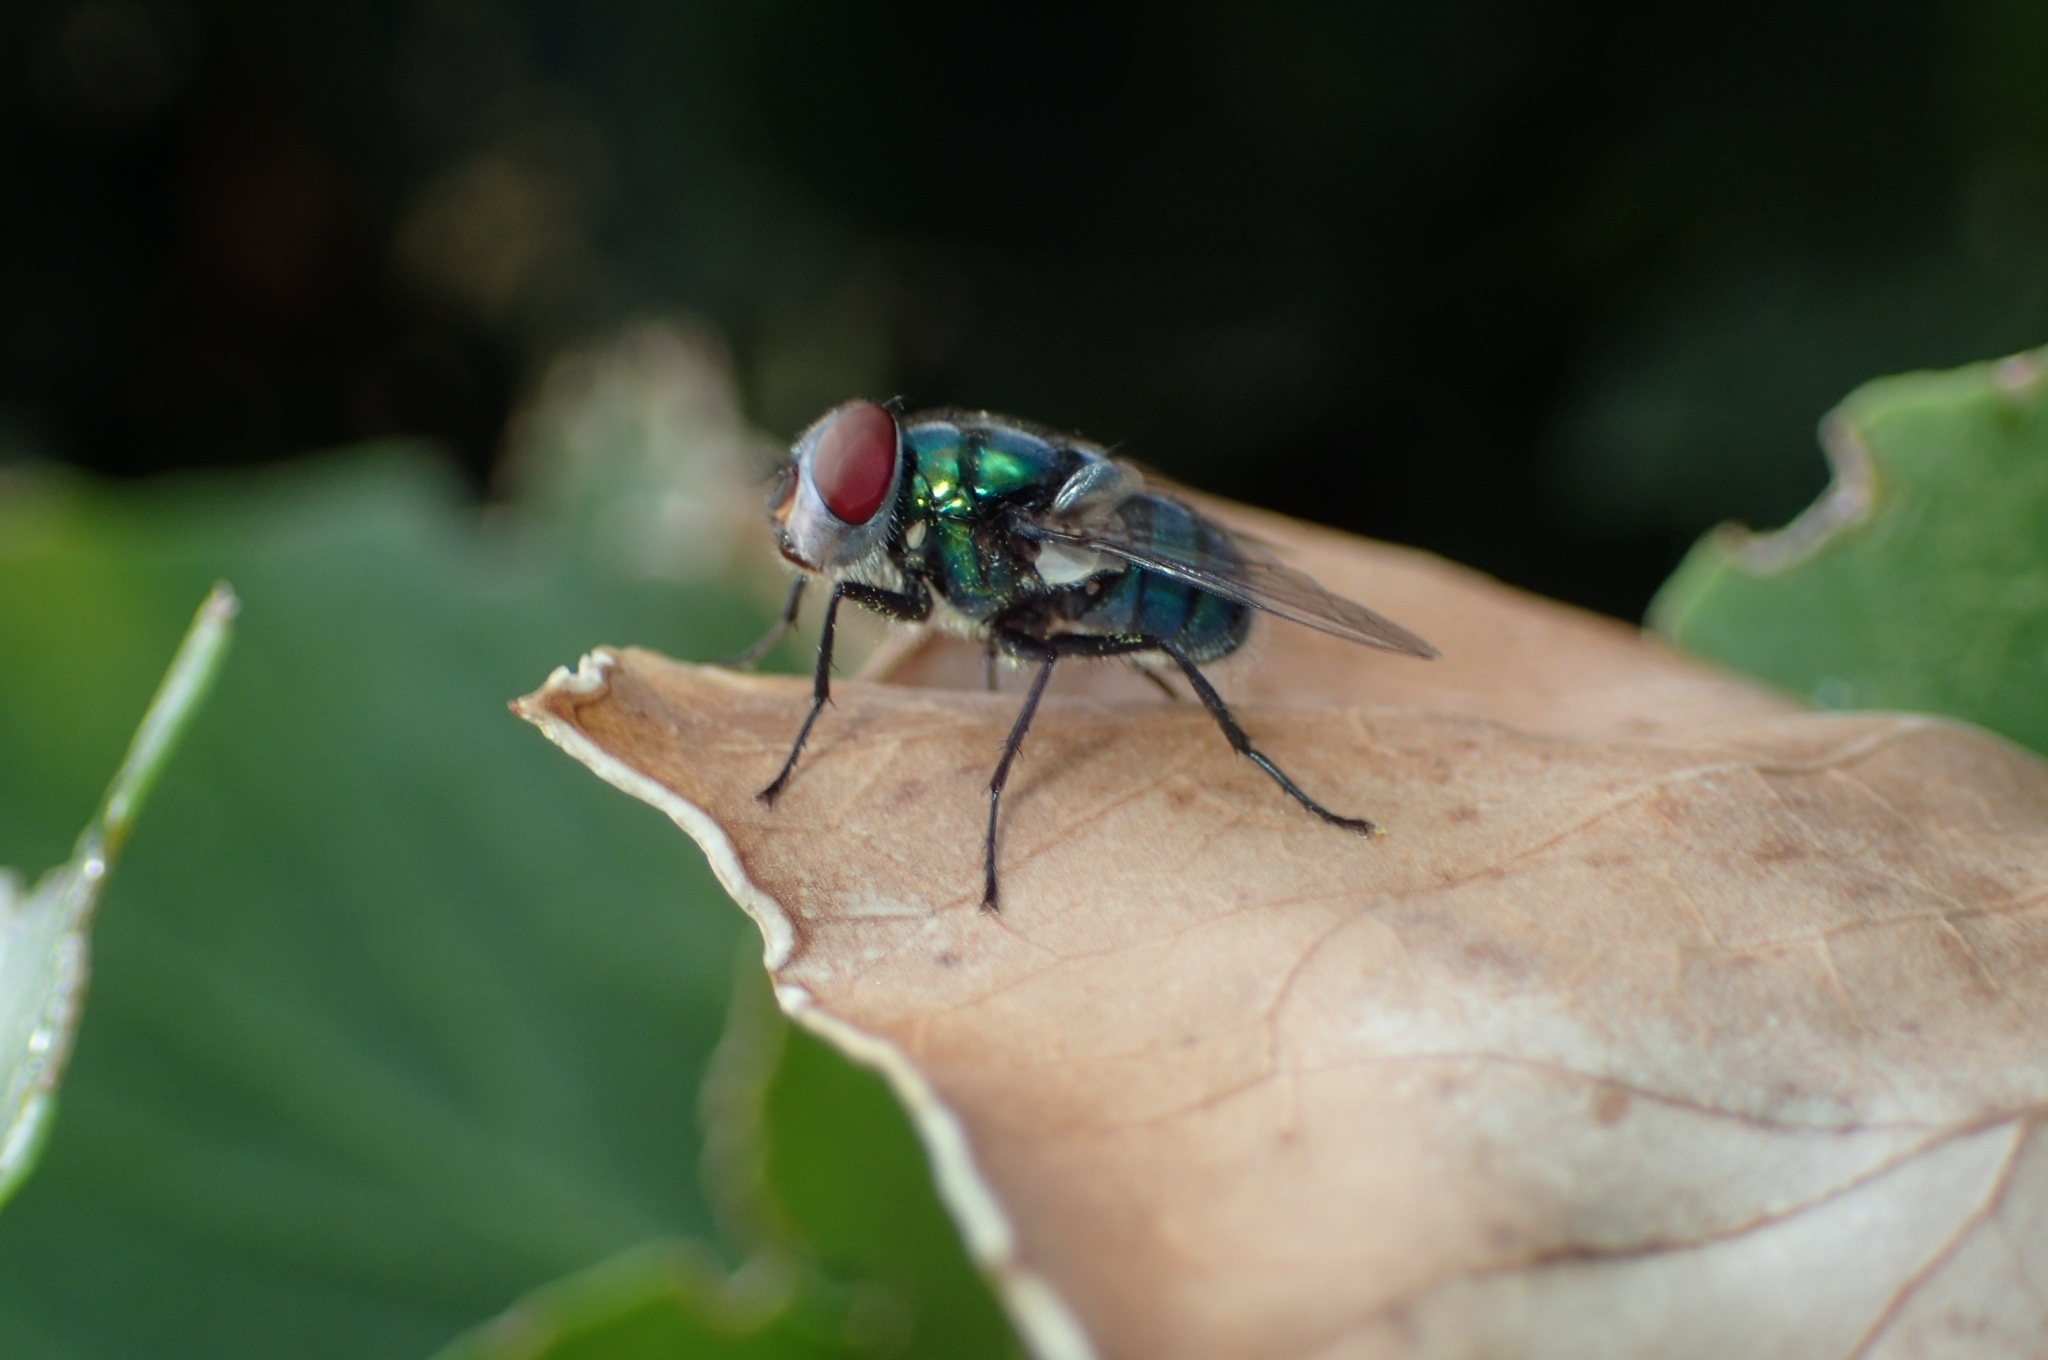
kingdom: Animalia
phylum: Arthropoda
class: Insecta
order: Diptera
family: Calliphoridae
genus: Chrysomya
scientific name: Chrysomya albiceps
